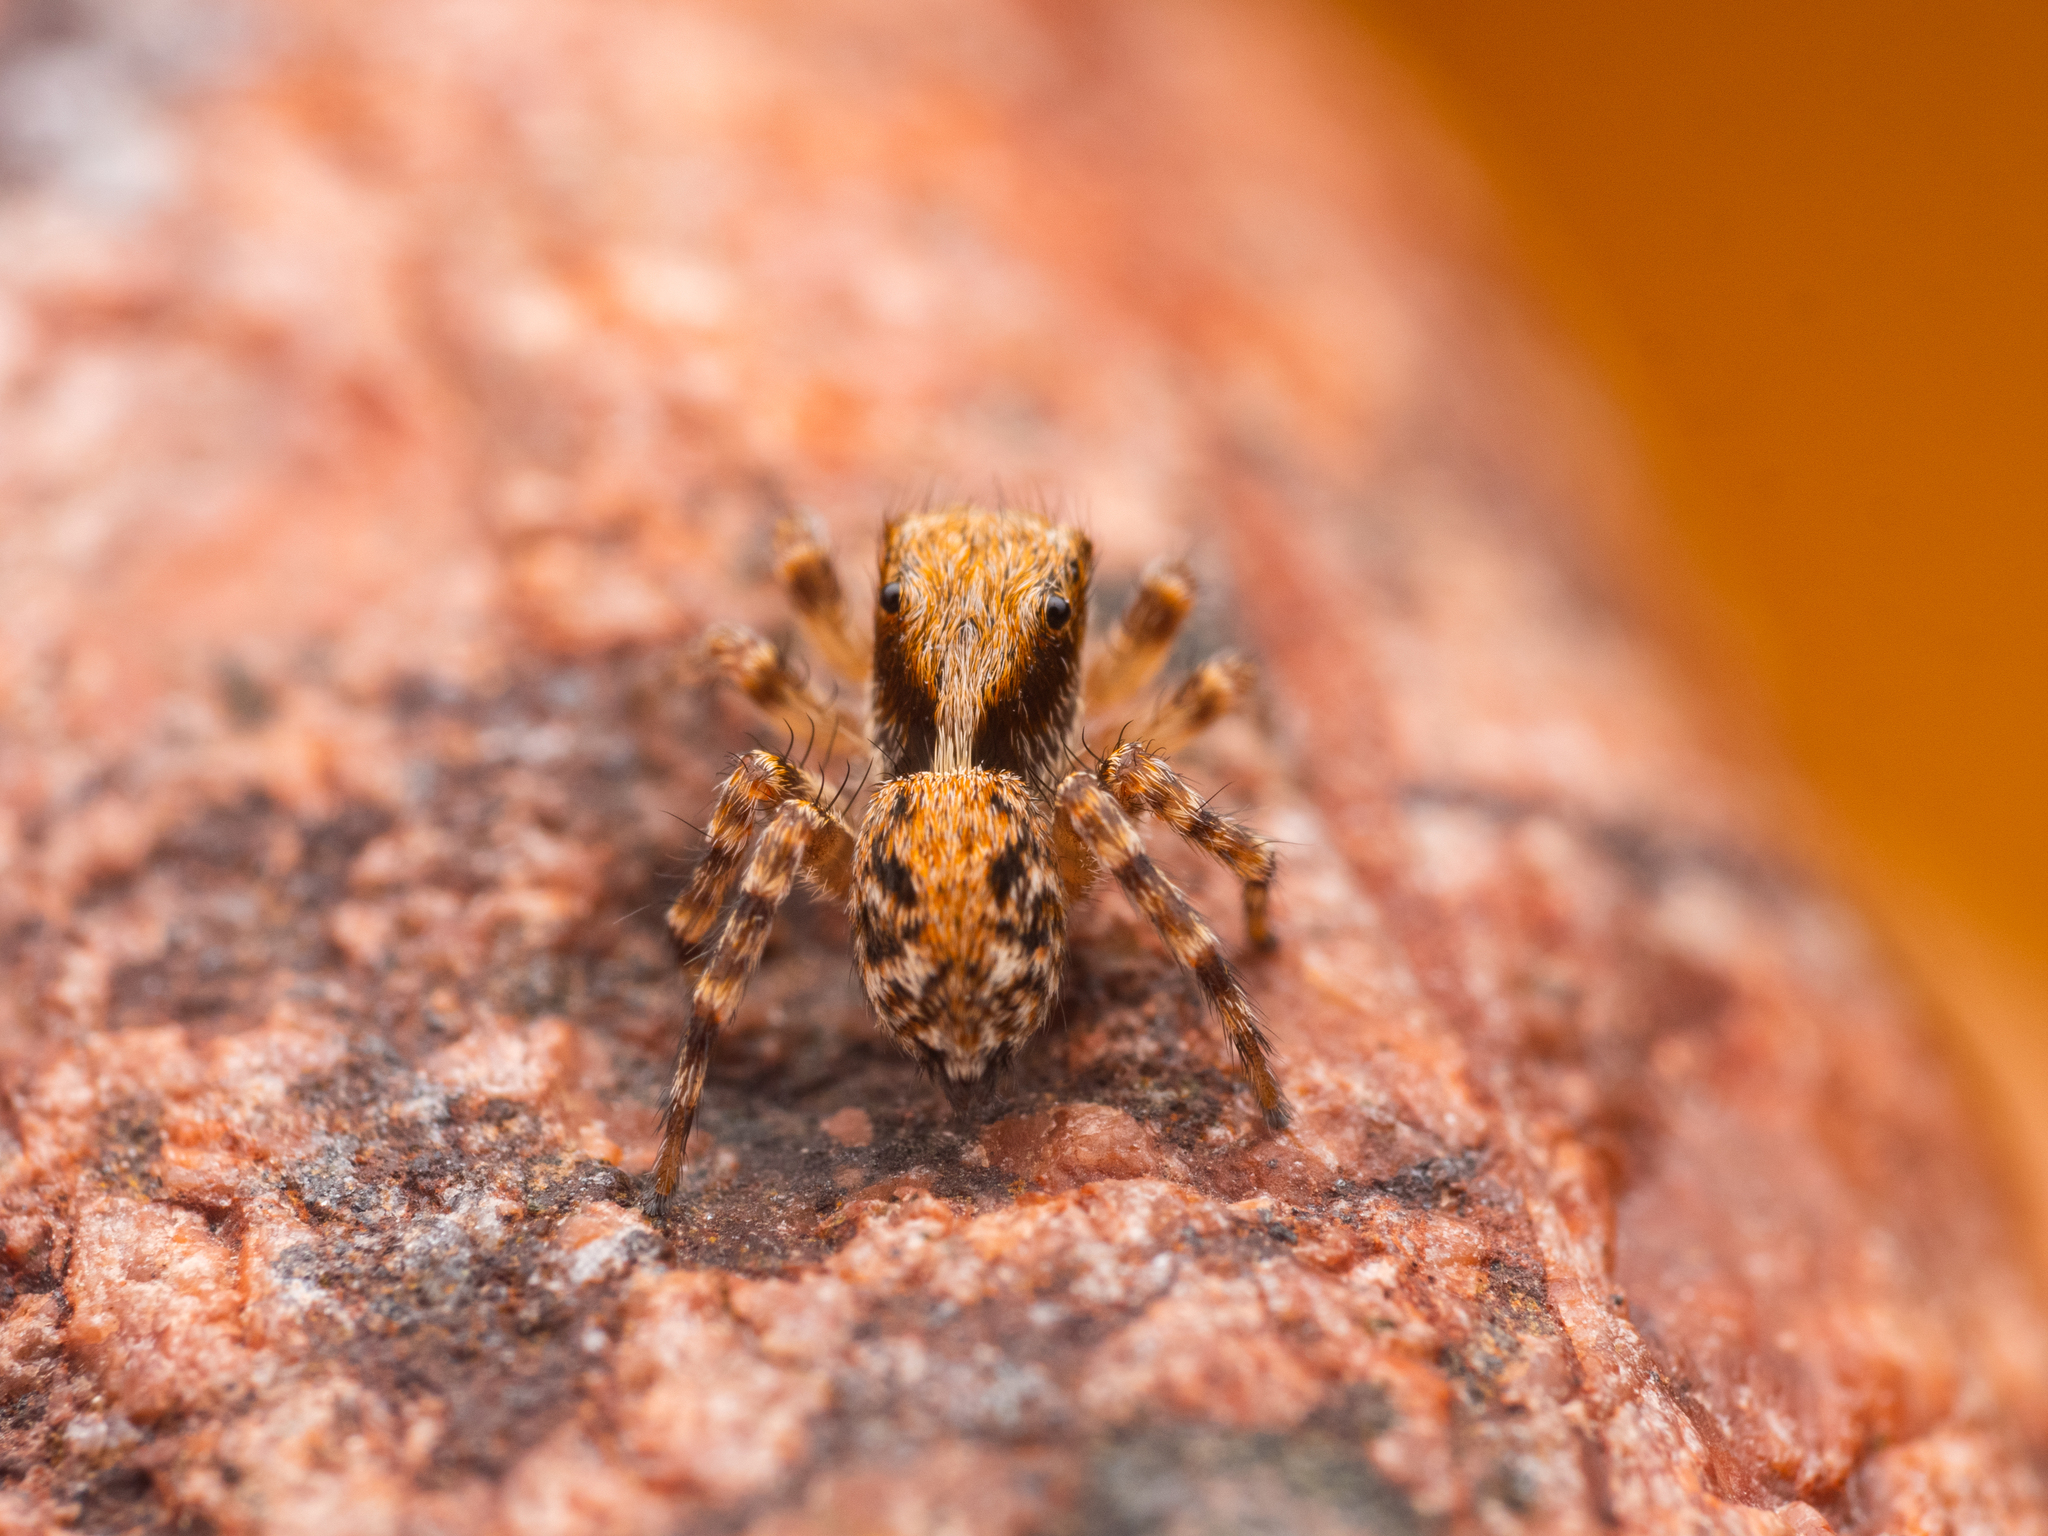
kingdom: Animalia
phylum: Arthropoda
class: Arachnida
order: Araneae
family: Salticidae
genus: Pseudeuophrys
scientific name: Pseudeuophrys lanigera
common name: Jumping spider
